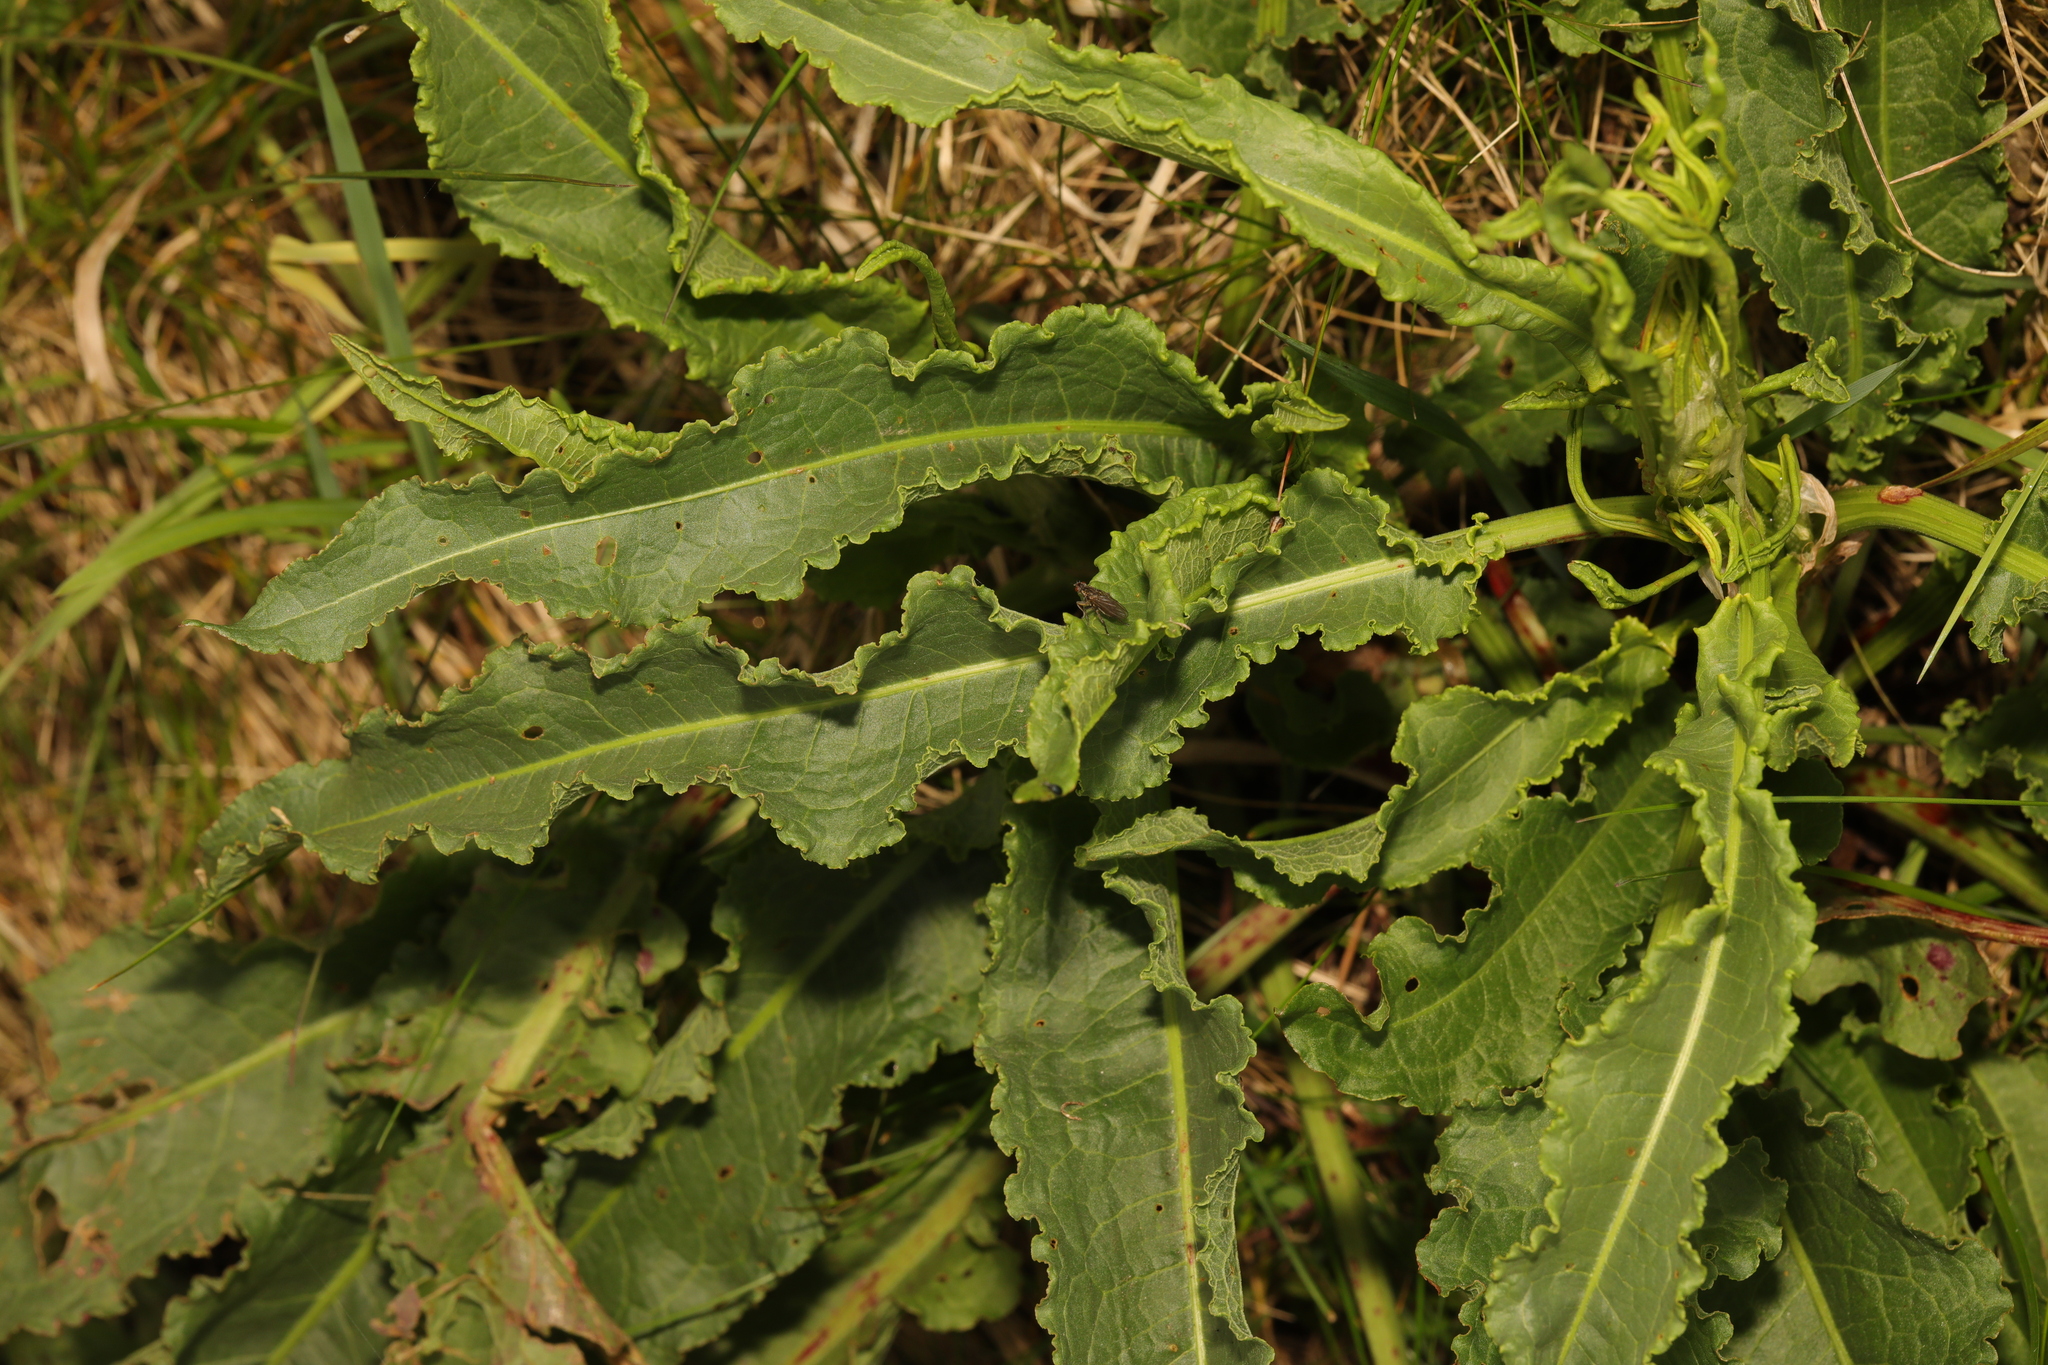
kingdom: Plantae
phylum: Tracheophyta
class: Magnoliopsida
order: Caryophyllales
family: Polygonaceae
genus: Rumex
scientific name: Rumex crispus
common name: Curled dock
